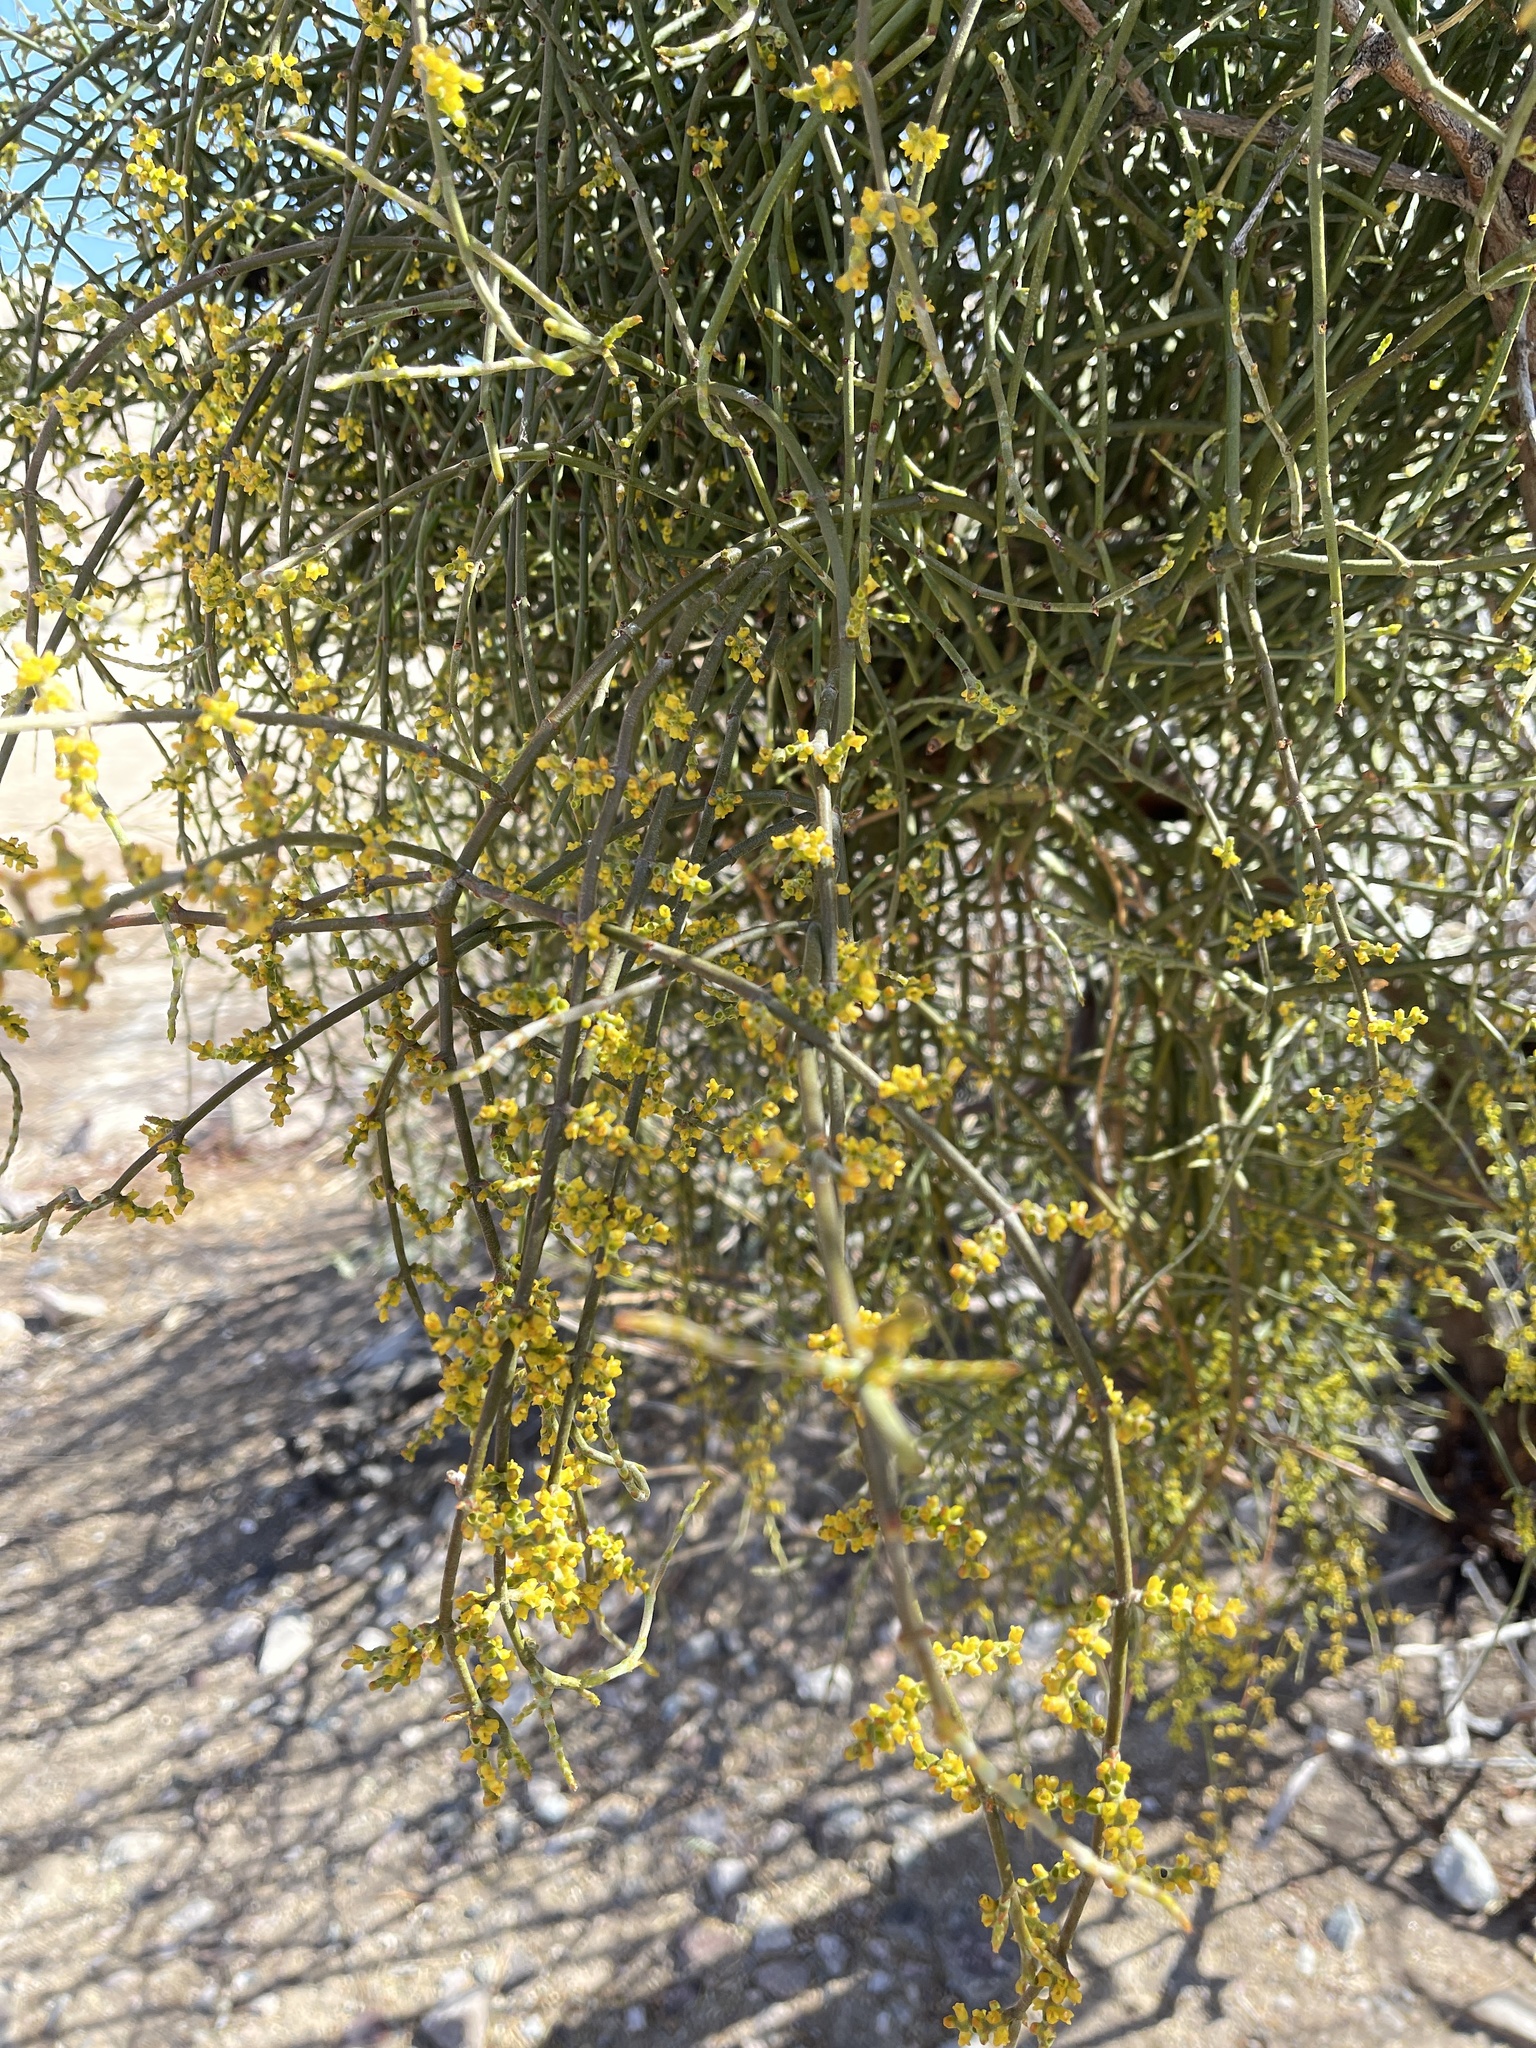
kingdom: Plantae
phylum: Tracheophyta
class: Magnoliopsida
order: Santalales
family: Viscaceae
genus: Phoradendron
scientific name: Phoradendron californicum
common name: Acacia mistletoe
